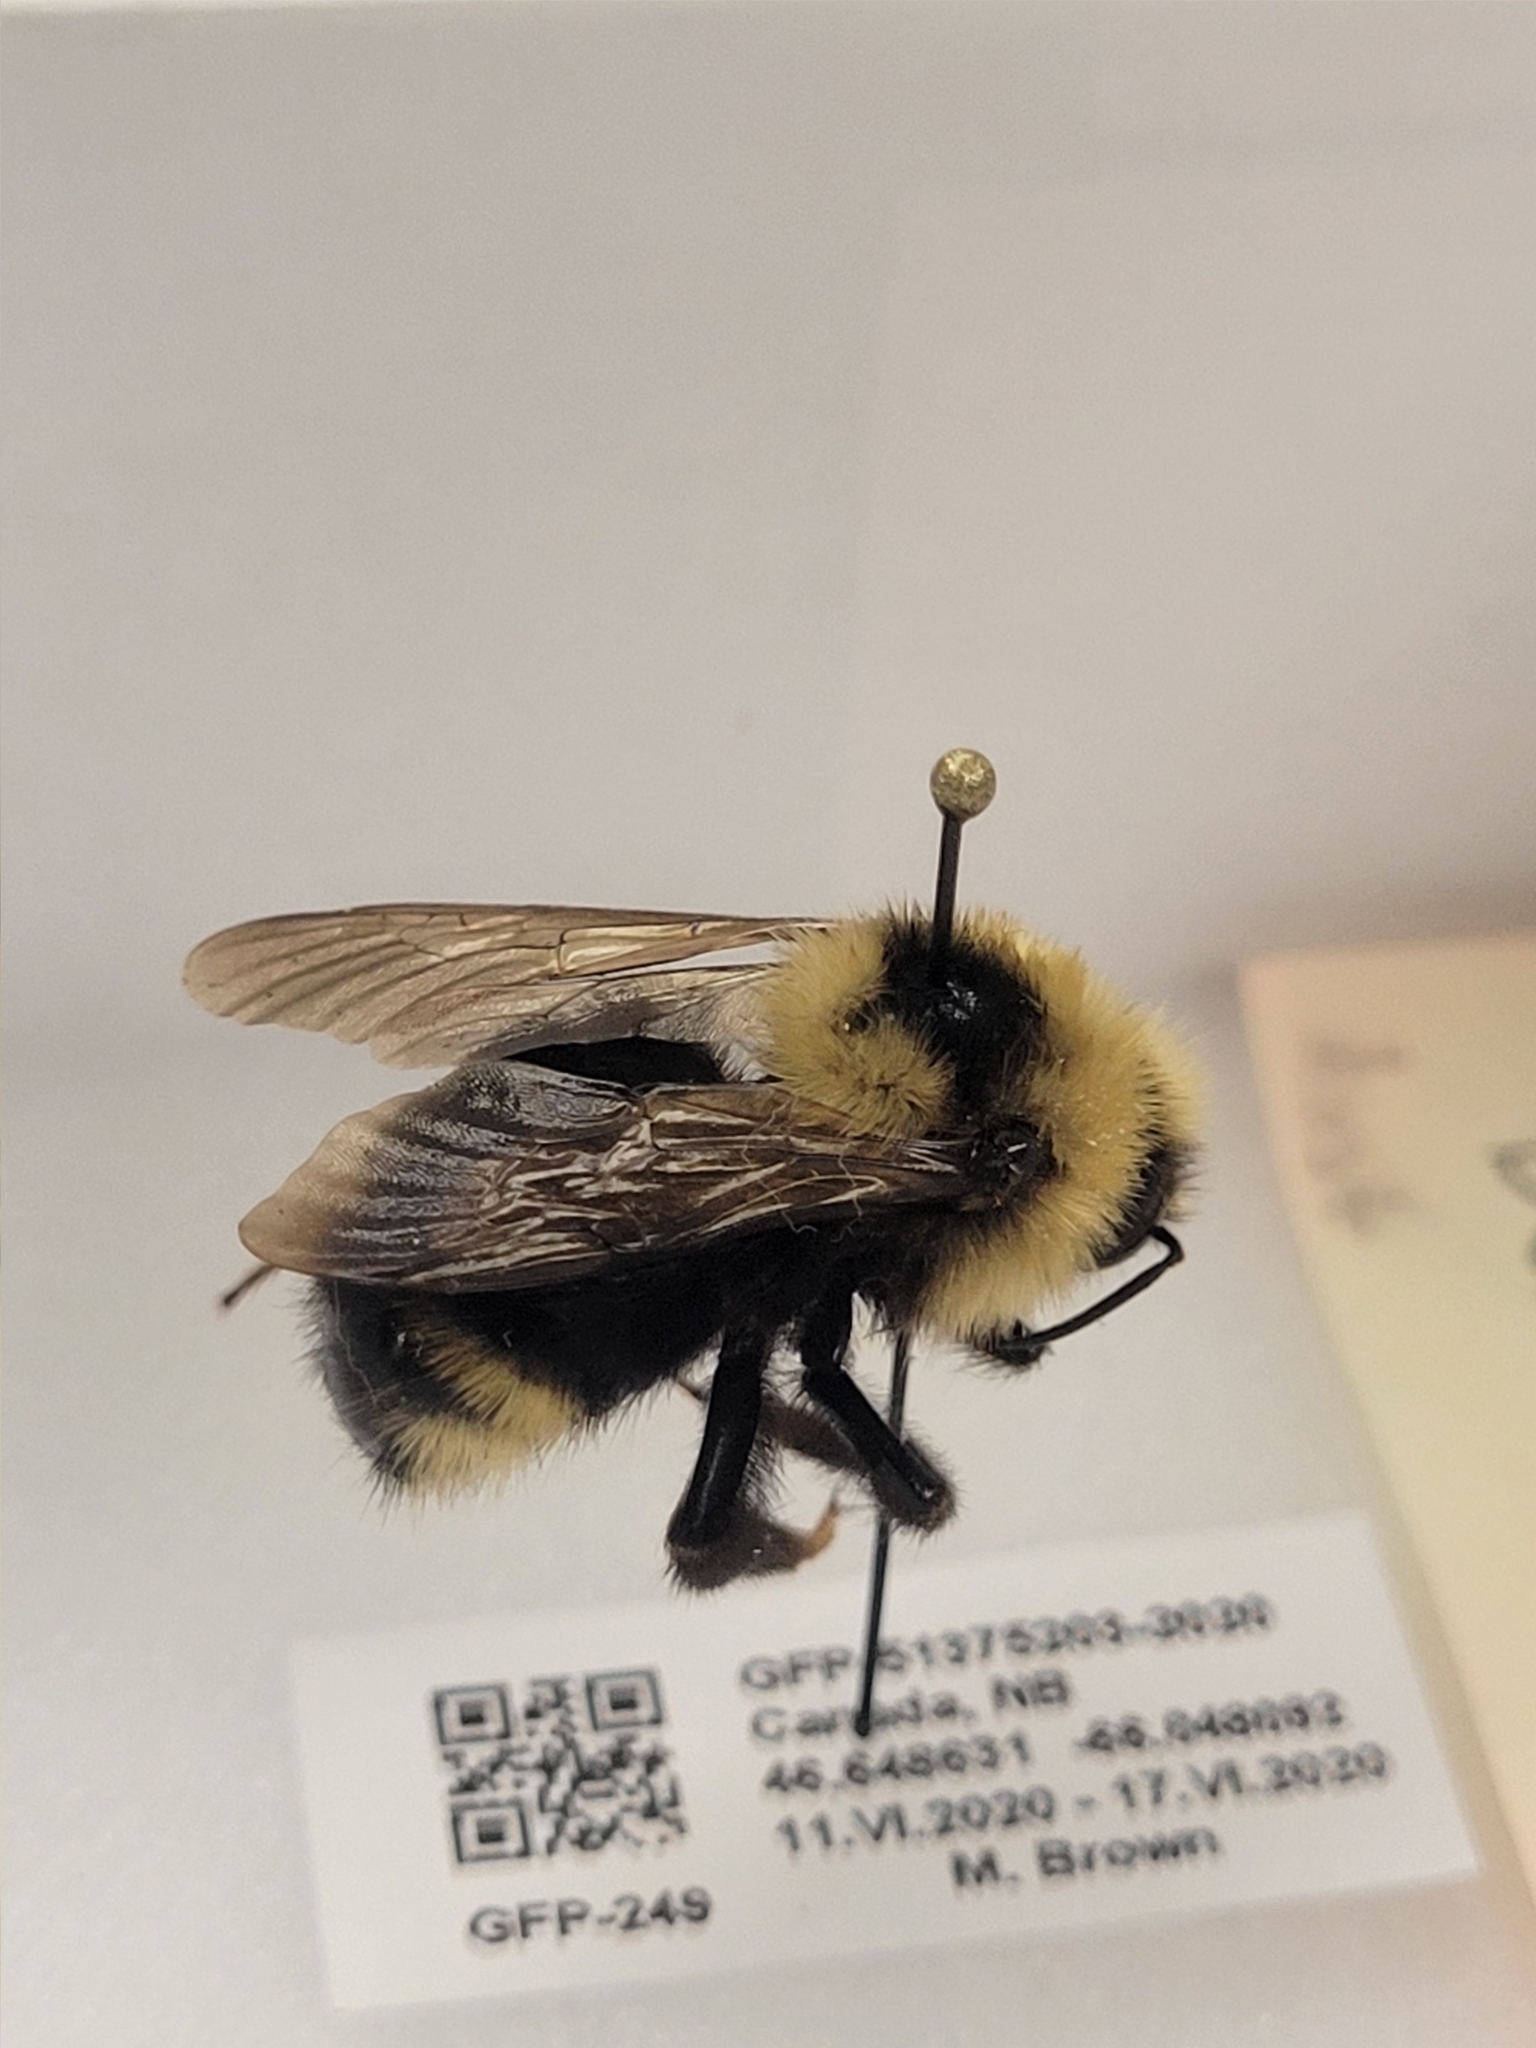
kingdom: Animalia
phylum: Arthropoda
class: Insecta
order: Hymenoptera
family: Apidae
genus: Bombus
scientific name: Bombus insularis
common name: Indiscriminate cuckoo bumble bee
